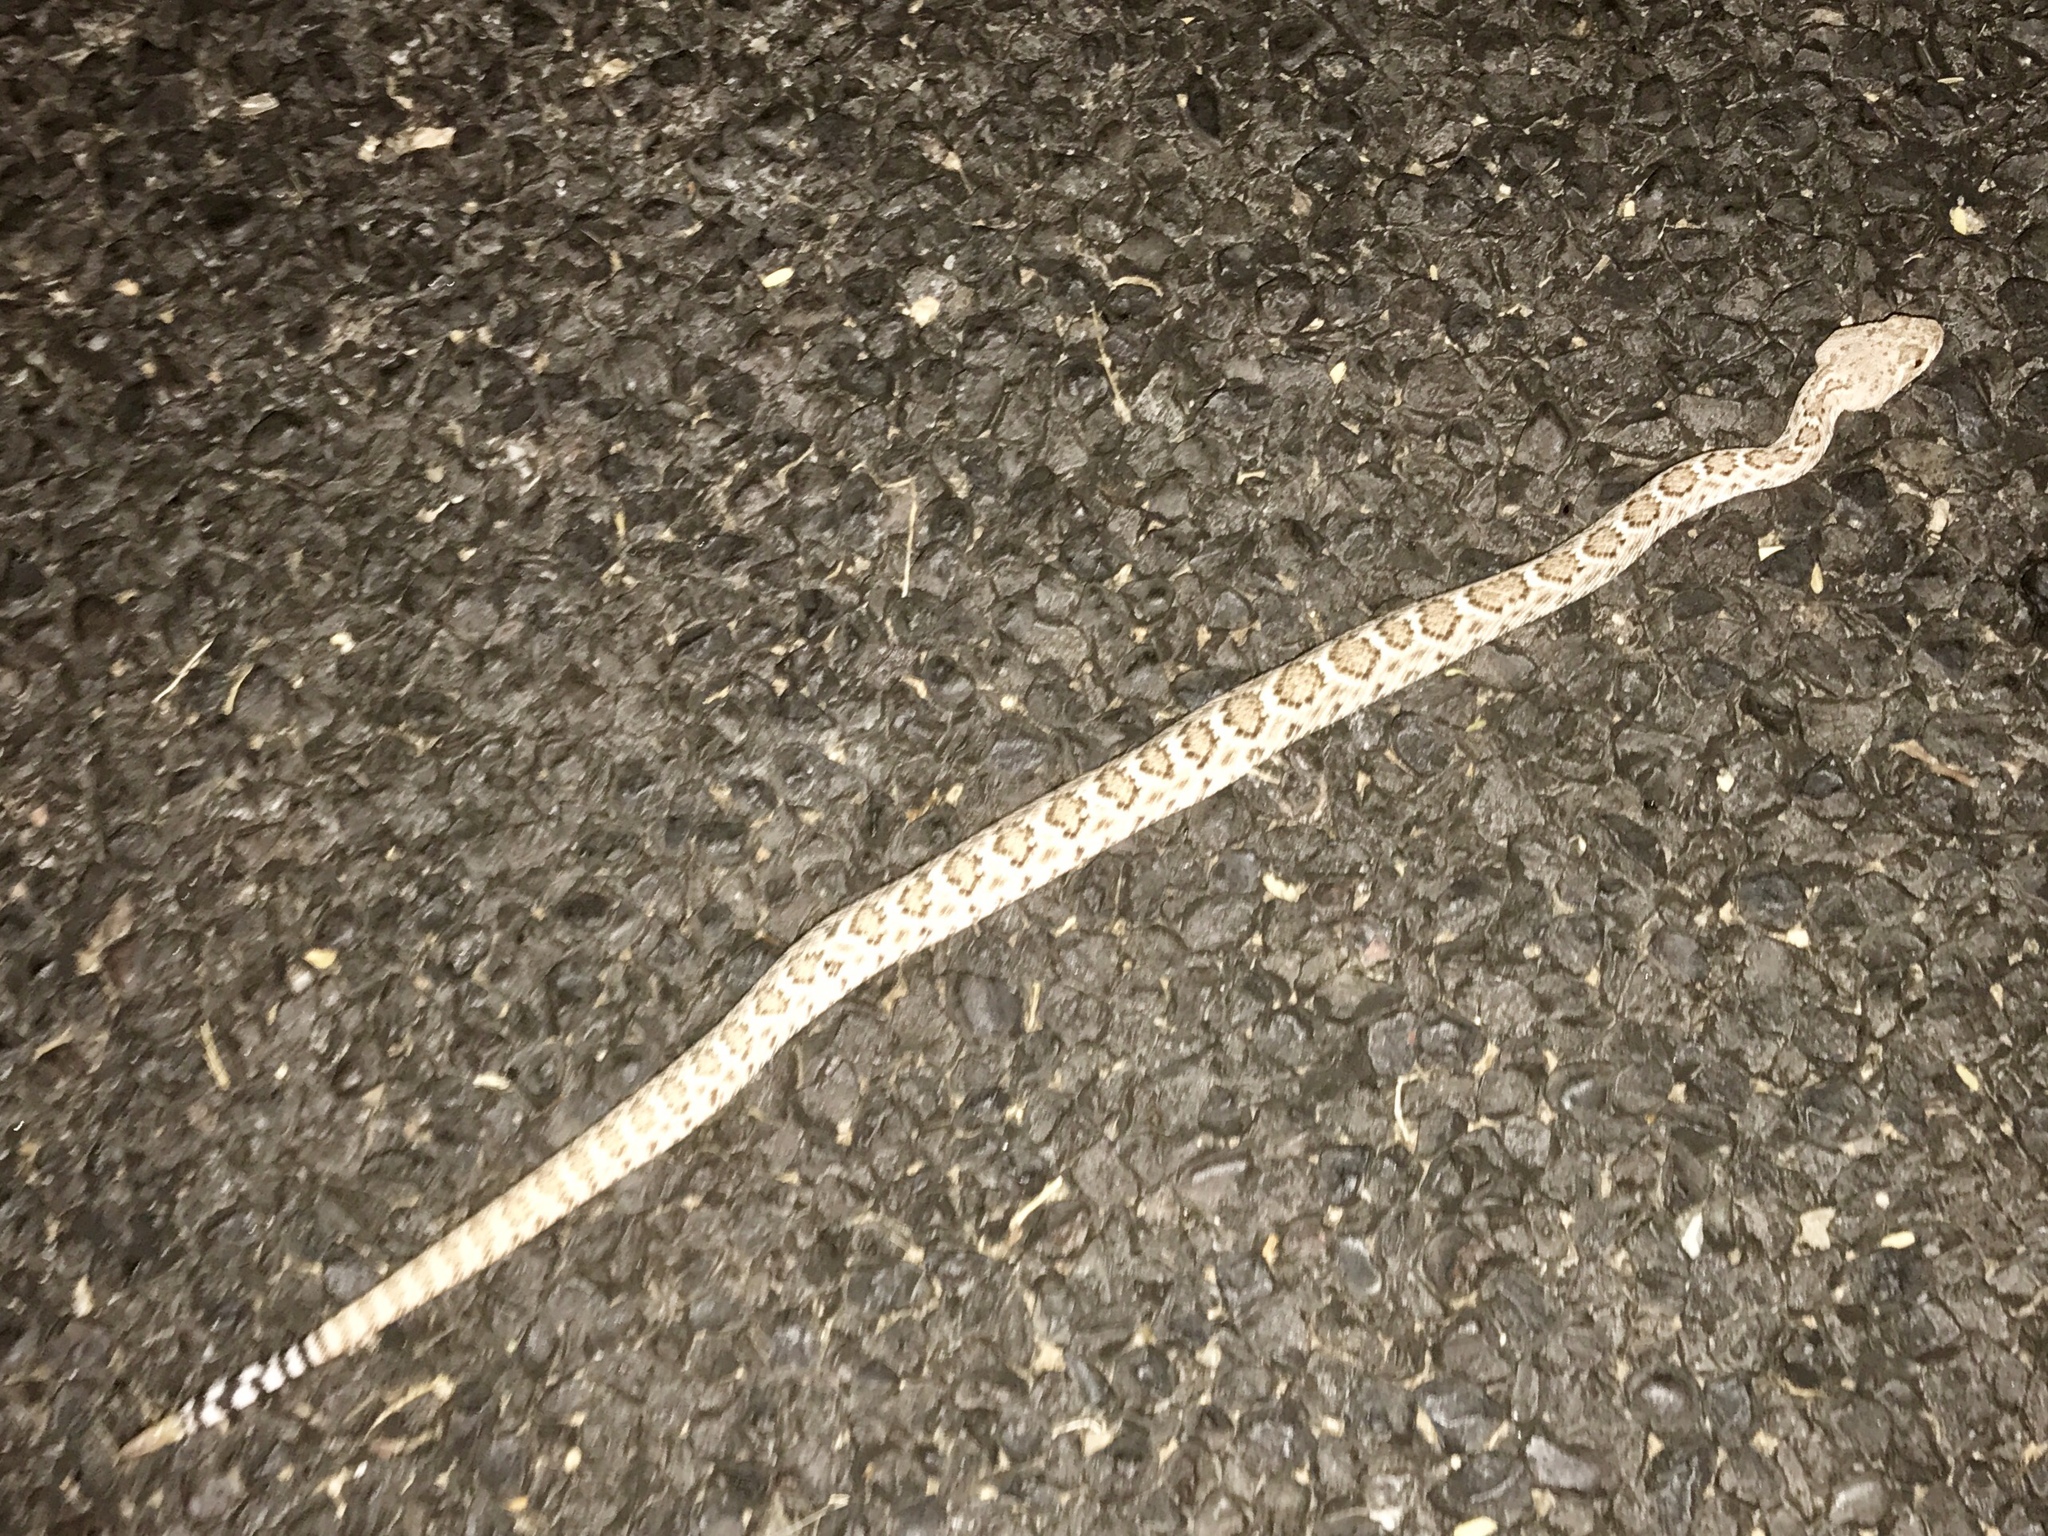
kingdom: Animalia
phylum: Chordata
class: Squamata
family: Viperidae
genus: Crotalus
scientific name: Crotalus atrox
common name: Western diamond-backed rattlesnake
